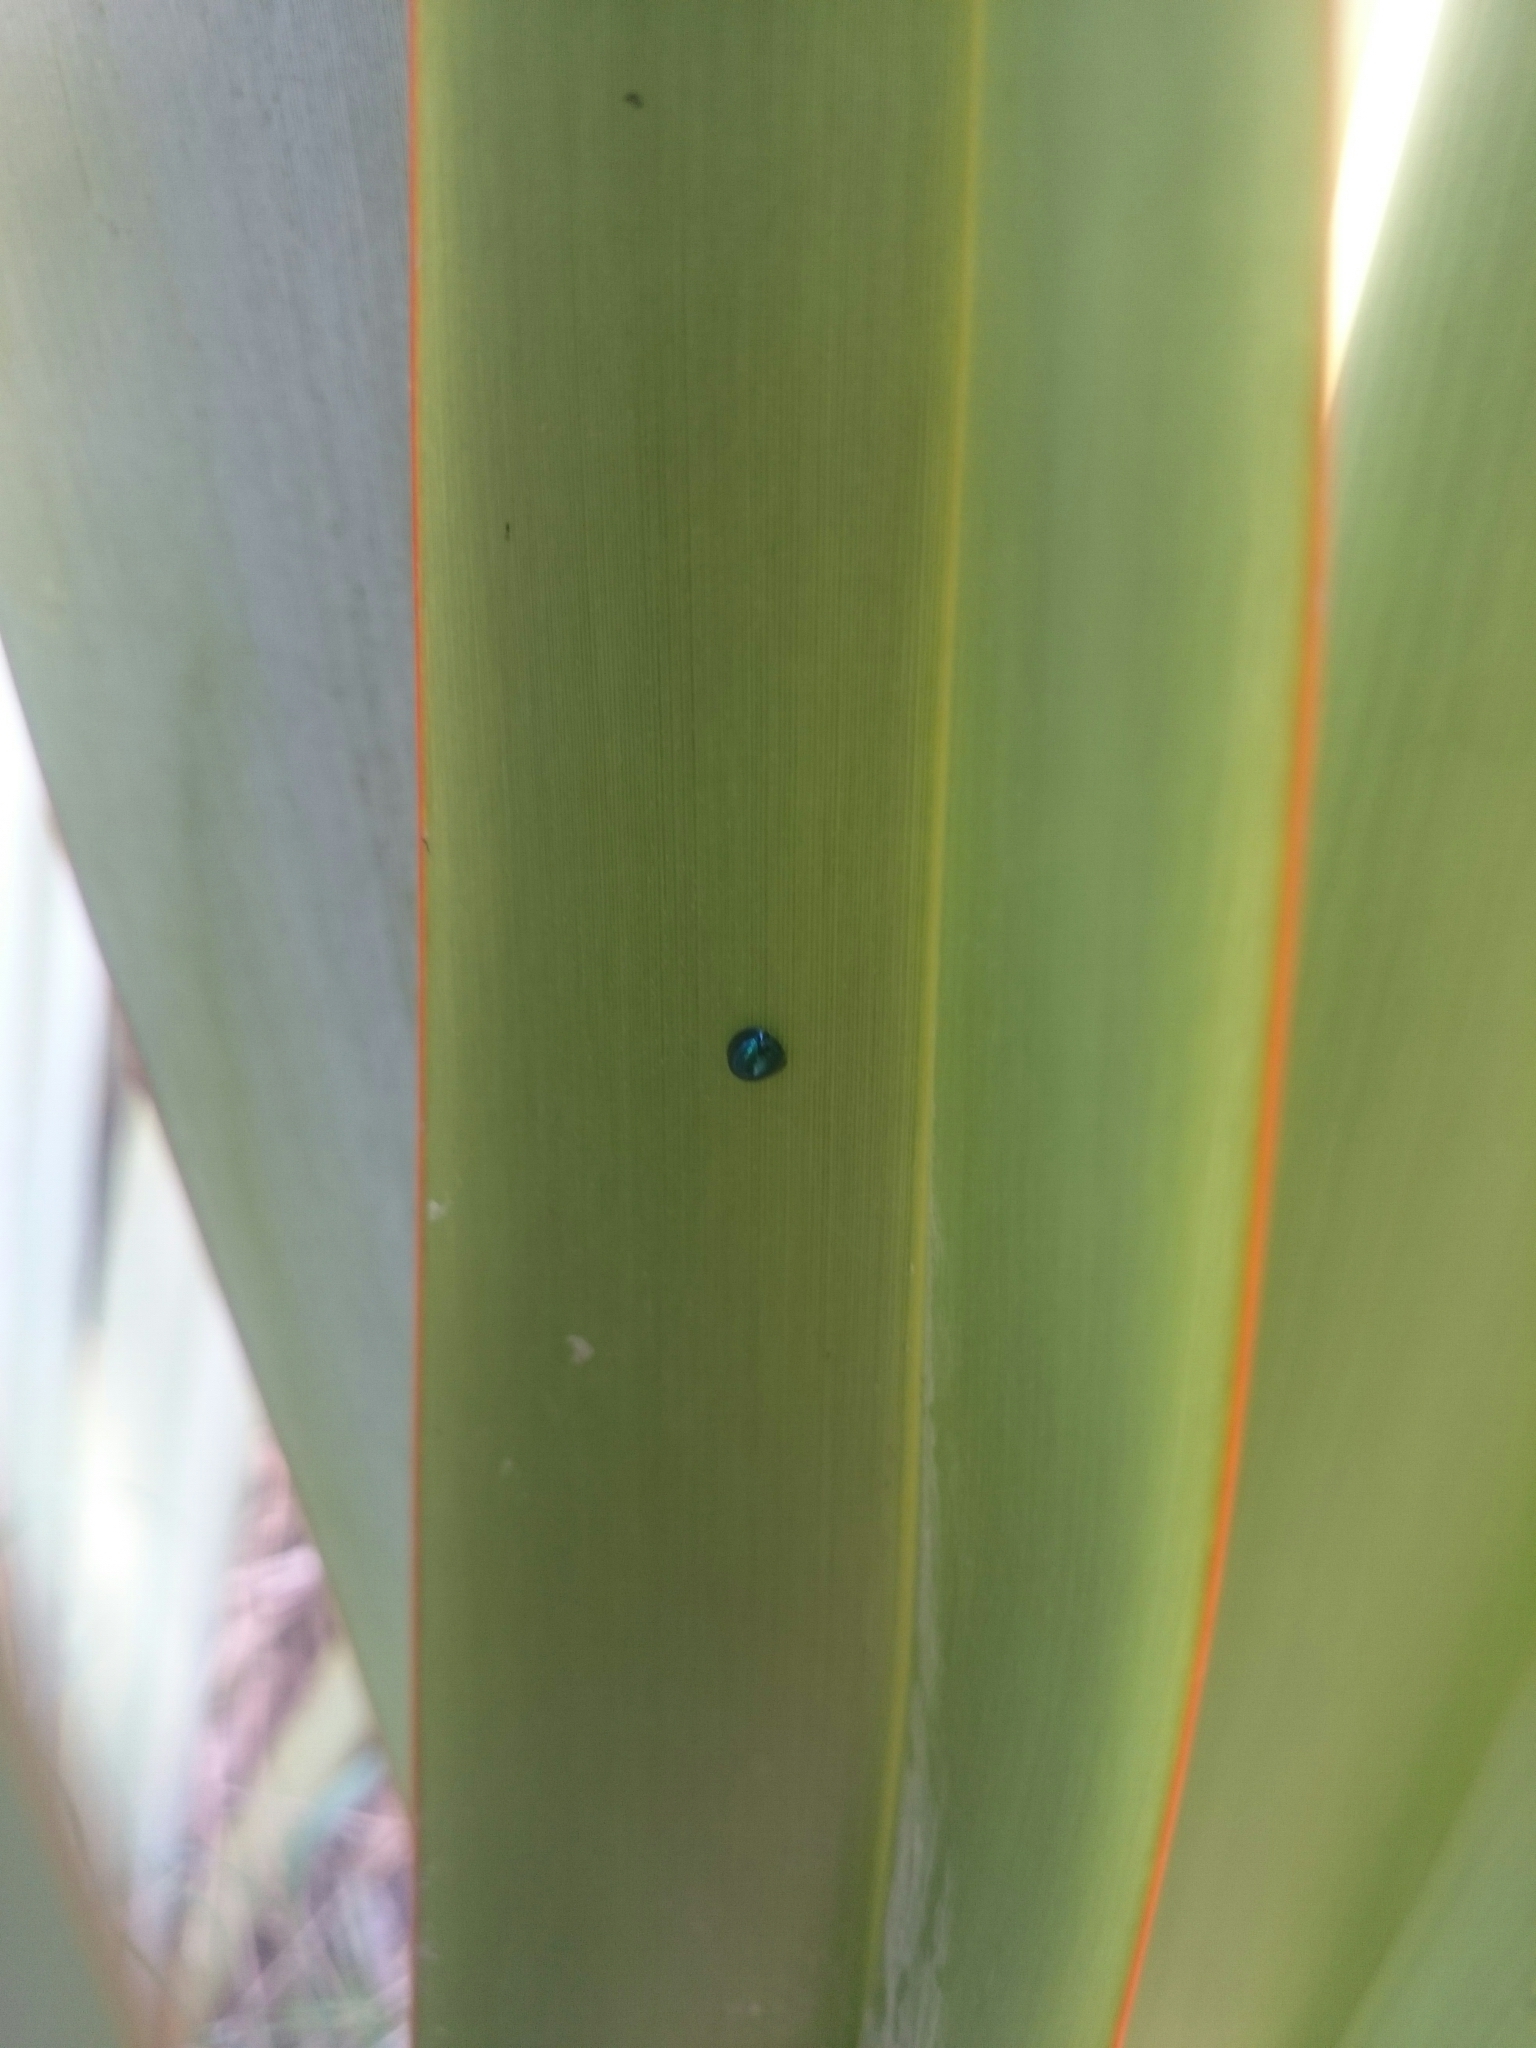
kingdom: Animalia
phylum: Arthropoda
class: Insecta
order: Coleoptera
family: Coccinellidae
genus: Halmus
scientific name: Halmus chalybeus
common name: Steel blue ladybird beetle
